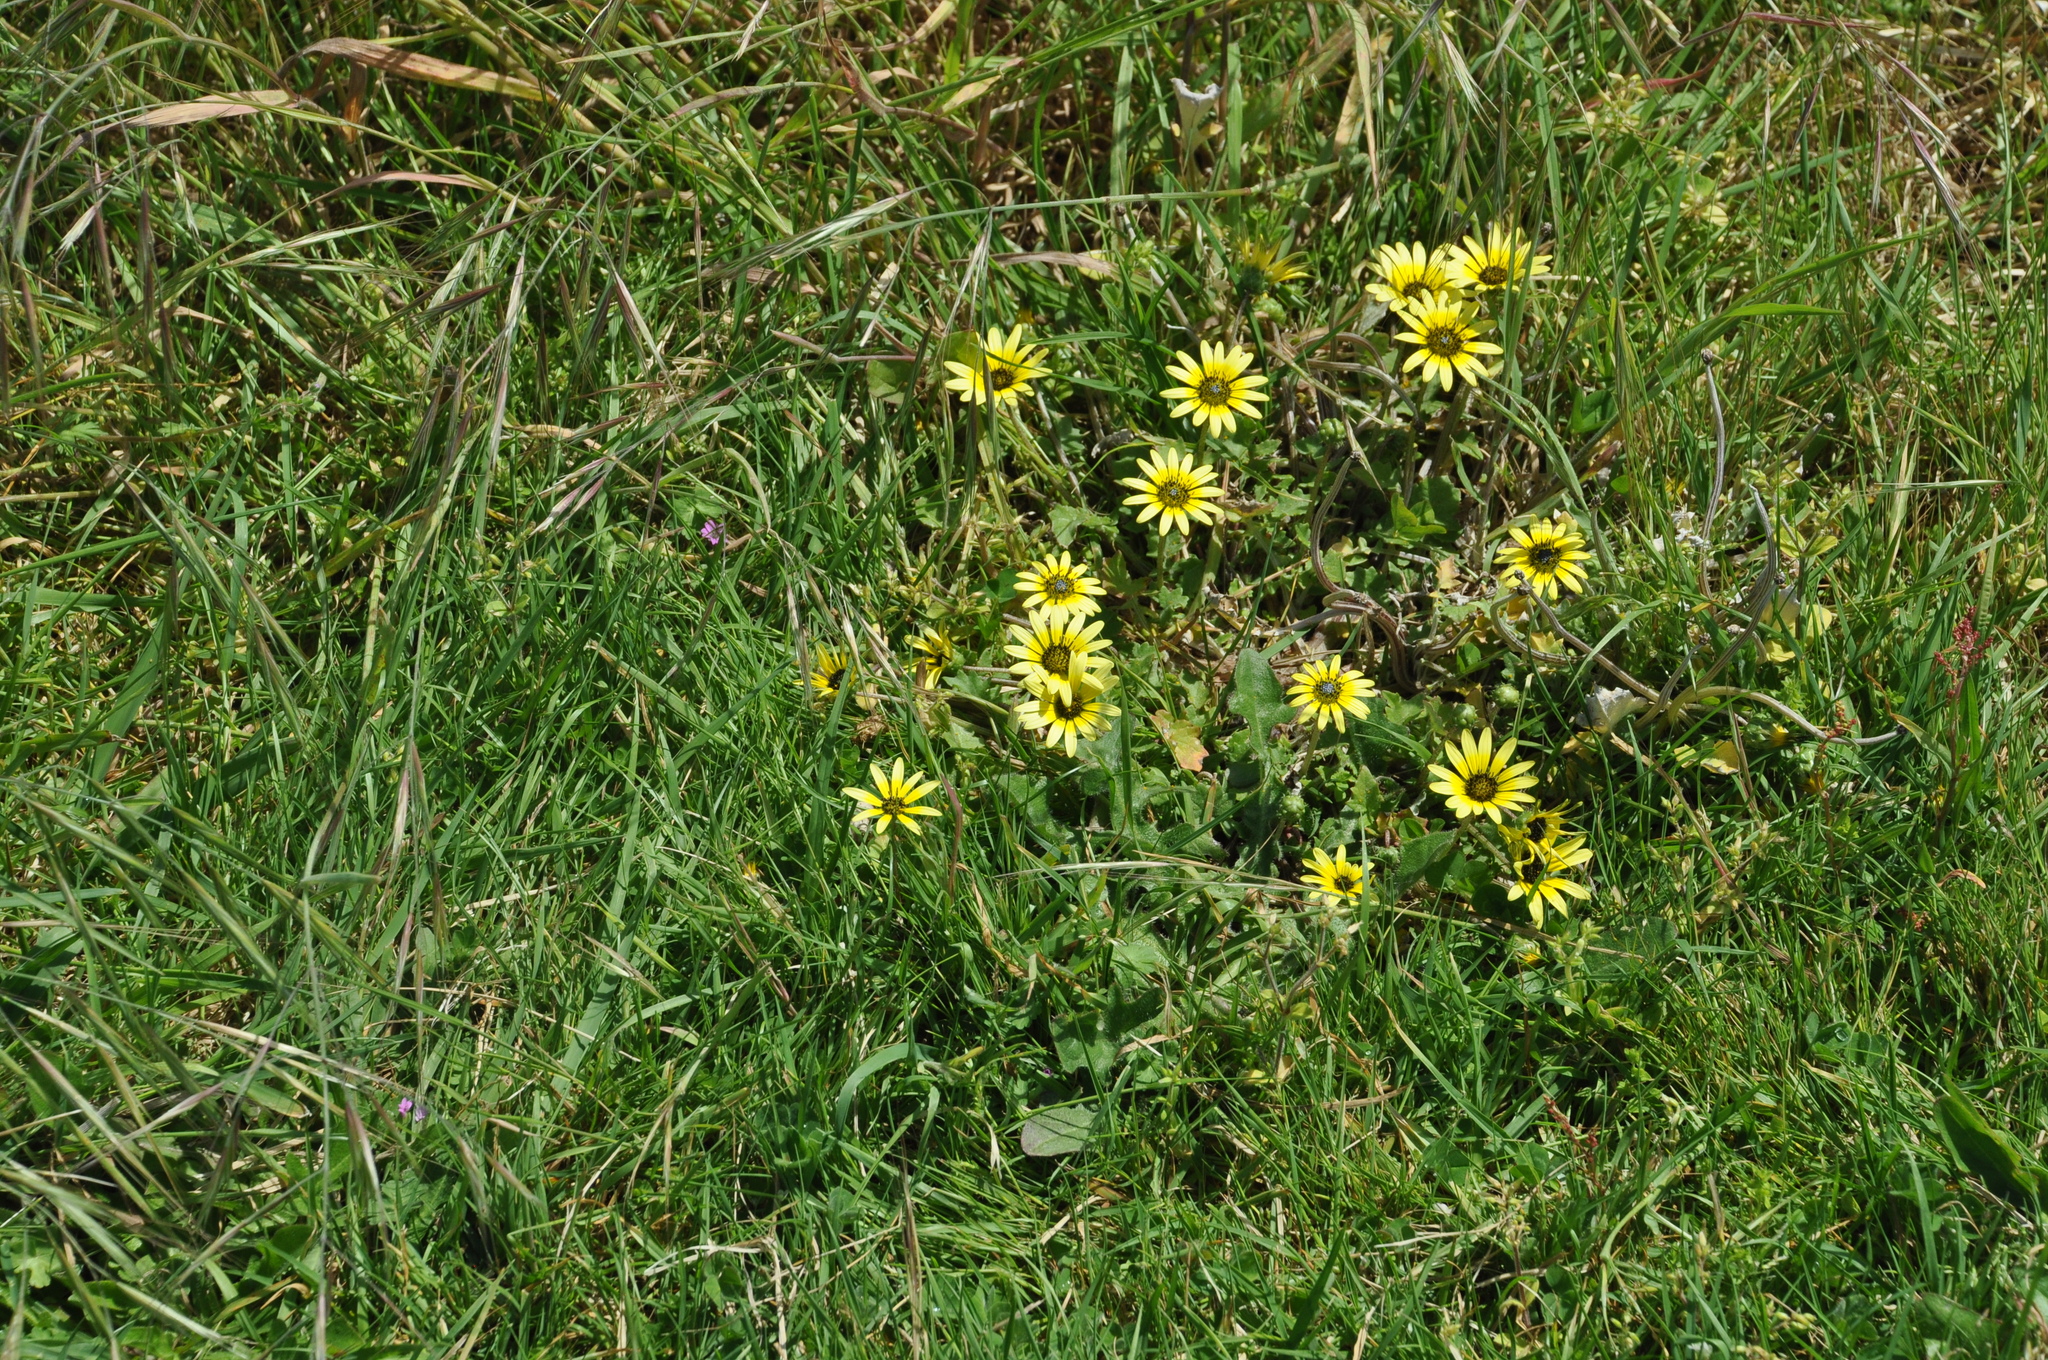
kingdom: Plantae
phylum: Tracheophyta
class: Magnoliopsida
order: Asterales
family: Asteraceae
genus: Arctotheca
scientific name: Arctotheca calendula
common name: Capeweed
